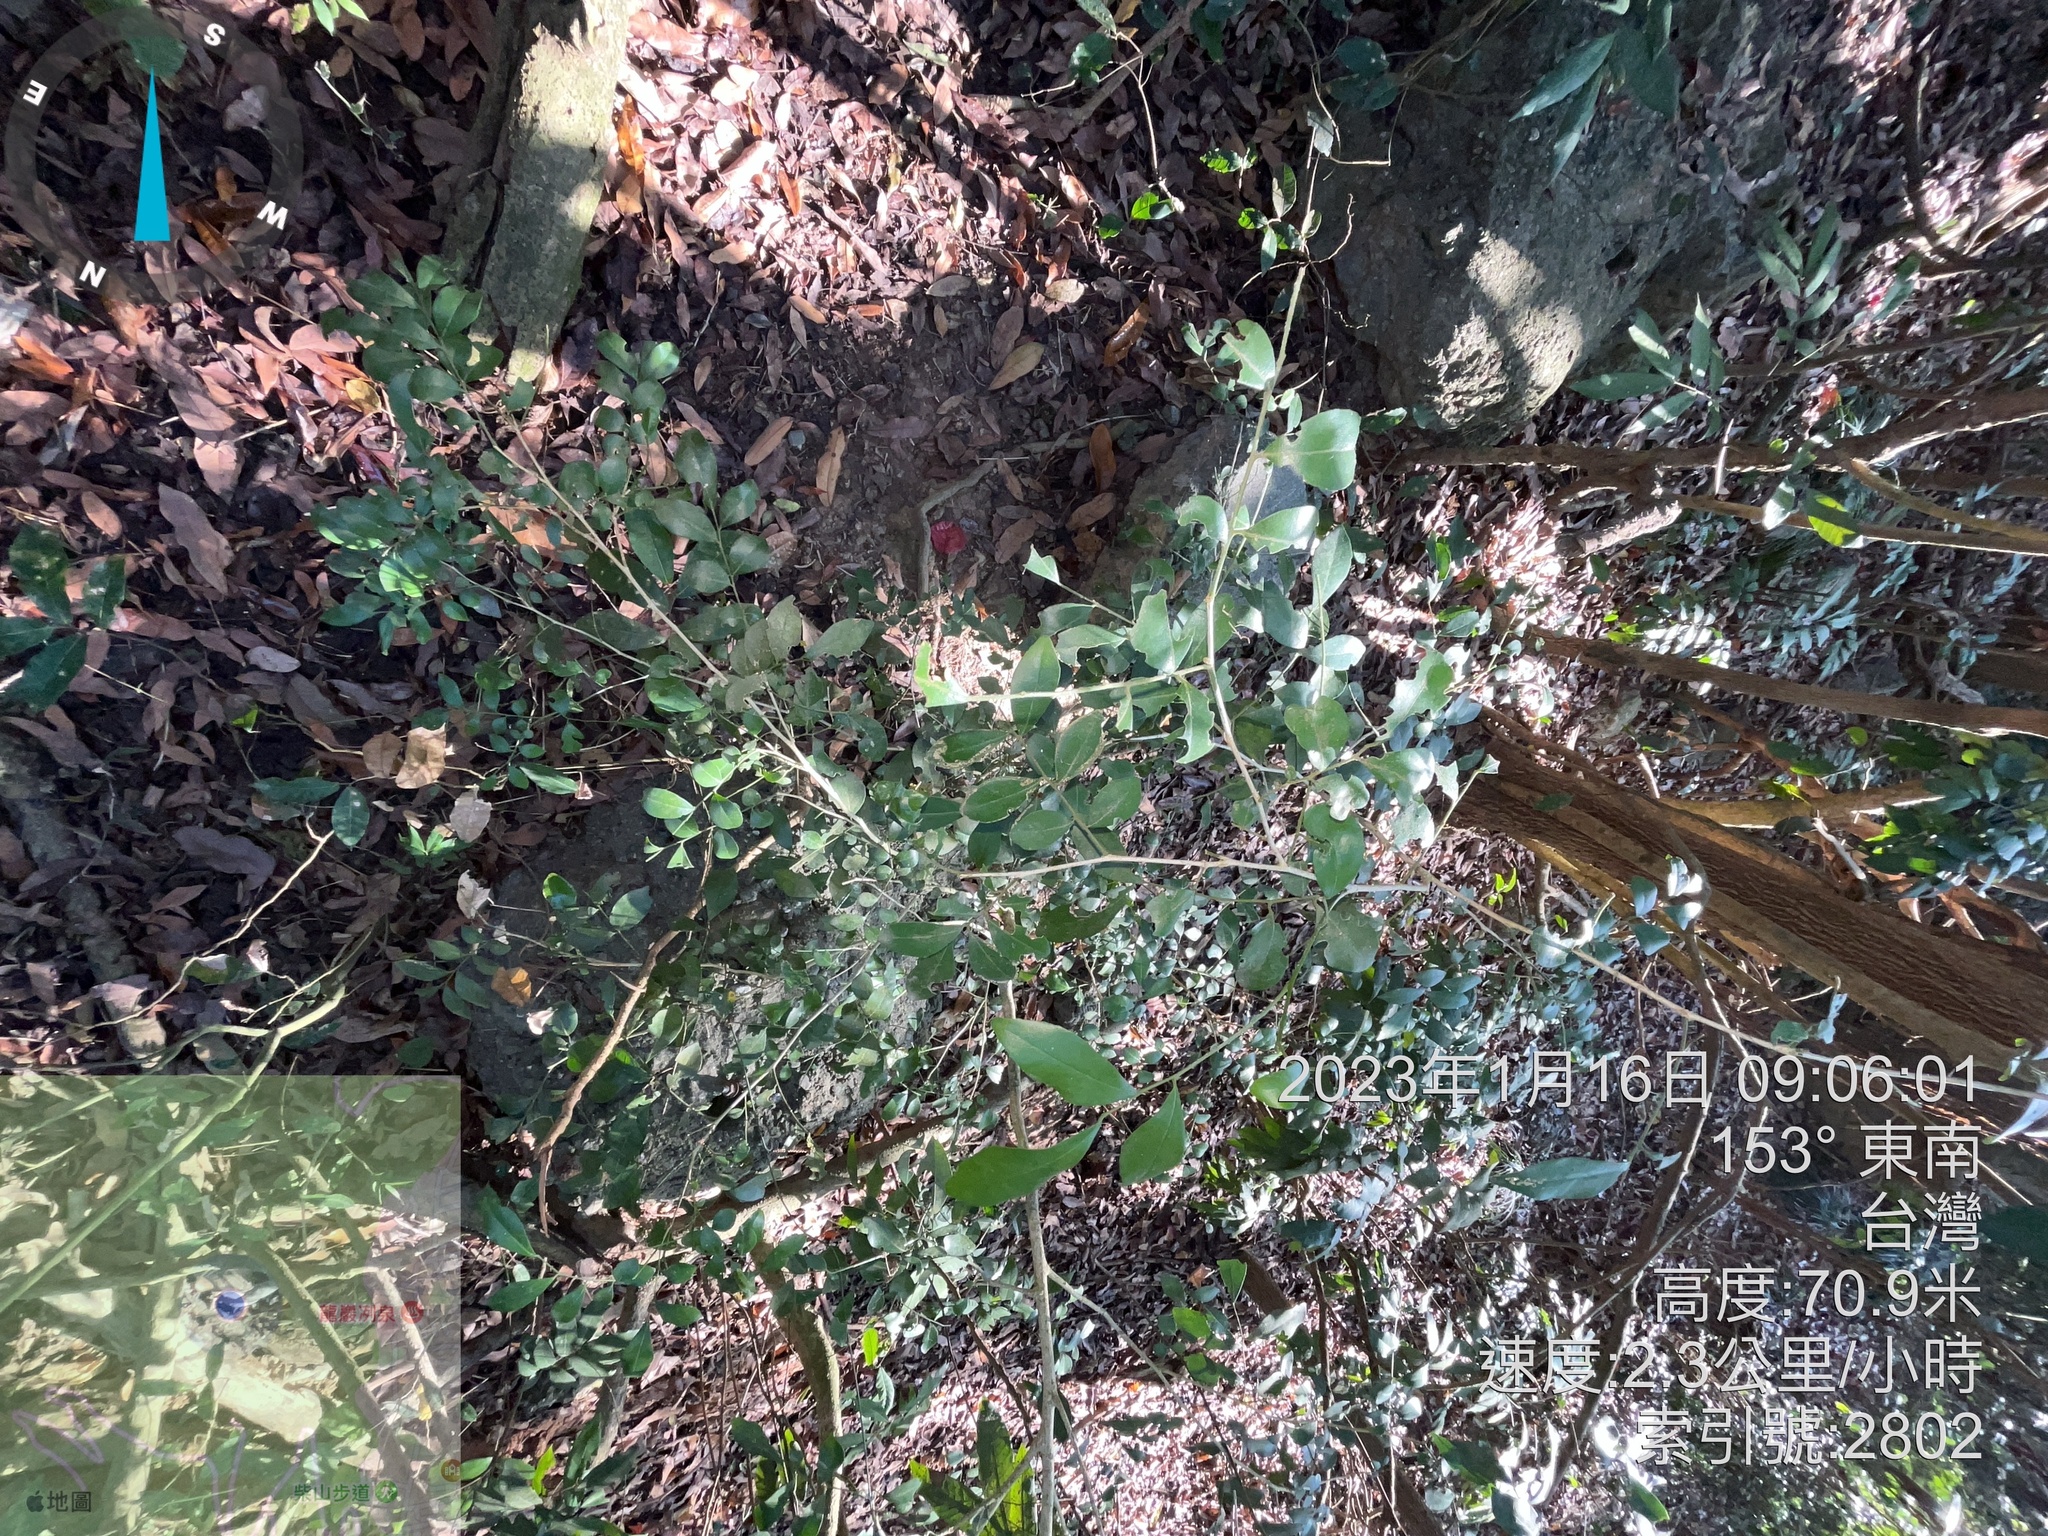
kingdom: Plantae
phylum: Tracheophyta
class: Magnoliopsida
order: Sapindales
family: Rutaceae
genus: Murraya
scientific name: Murraya paniculata
